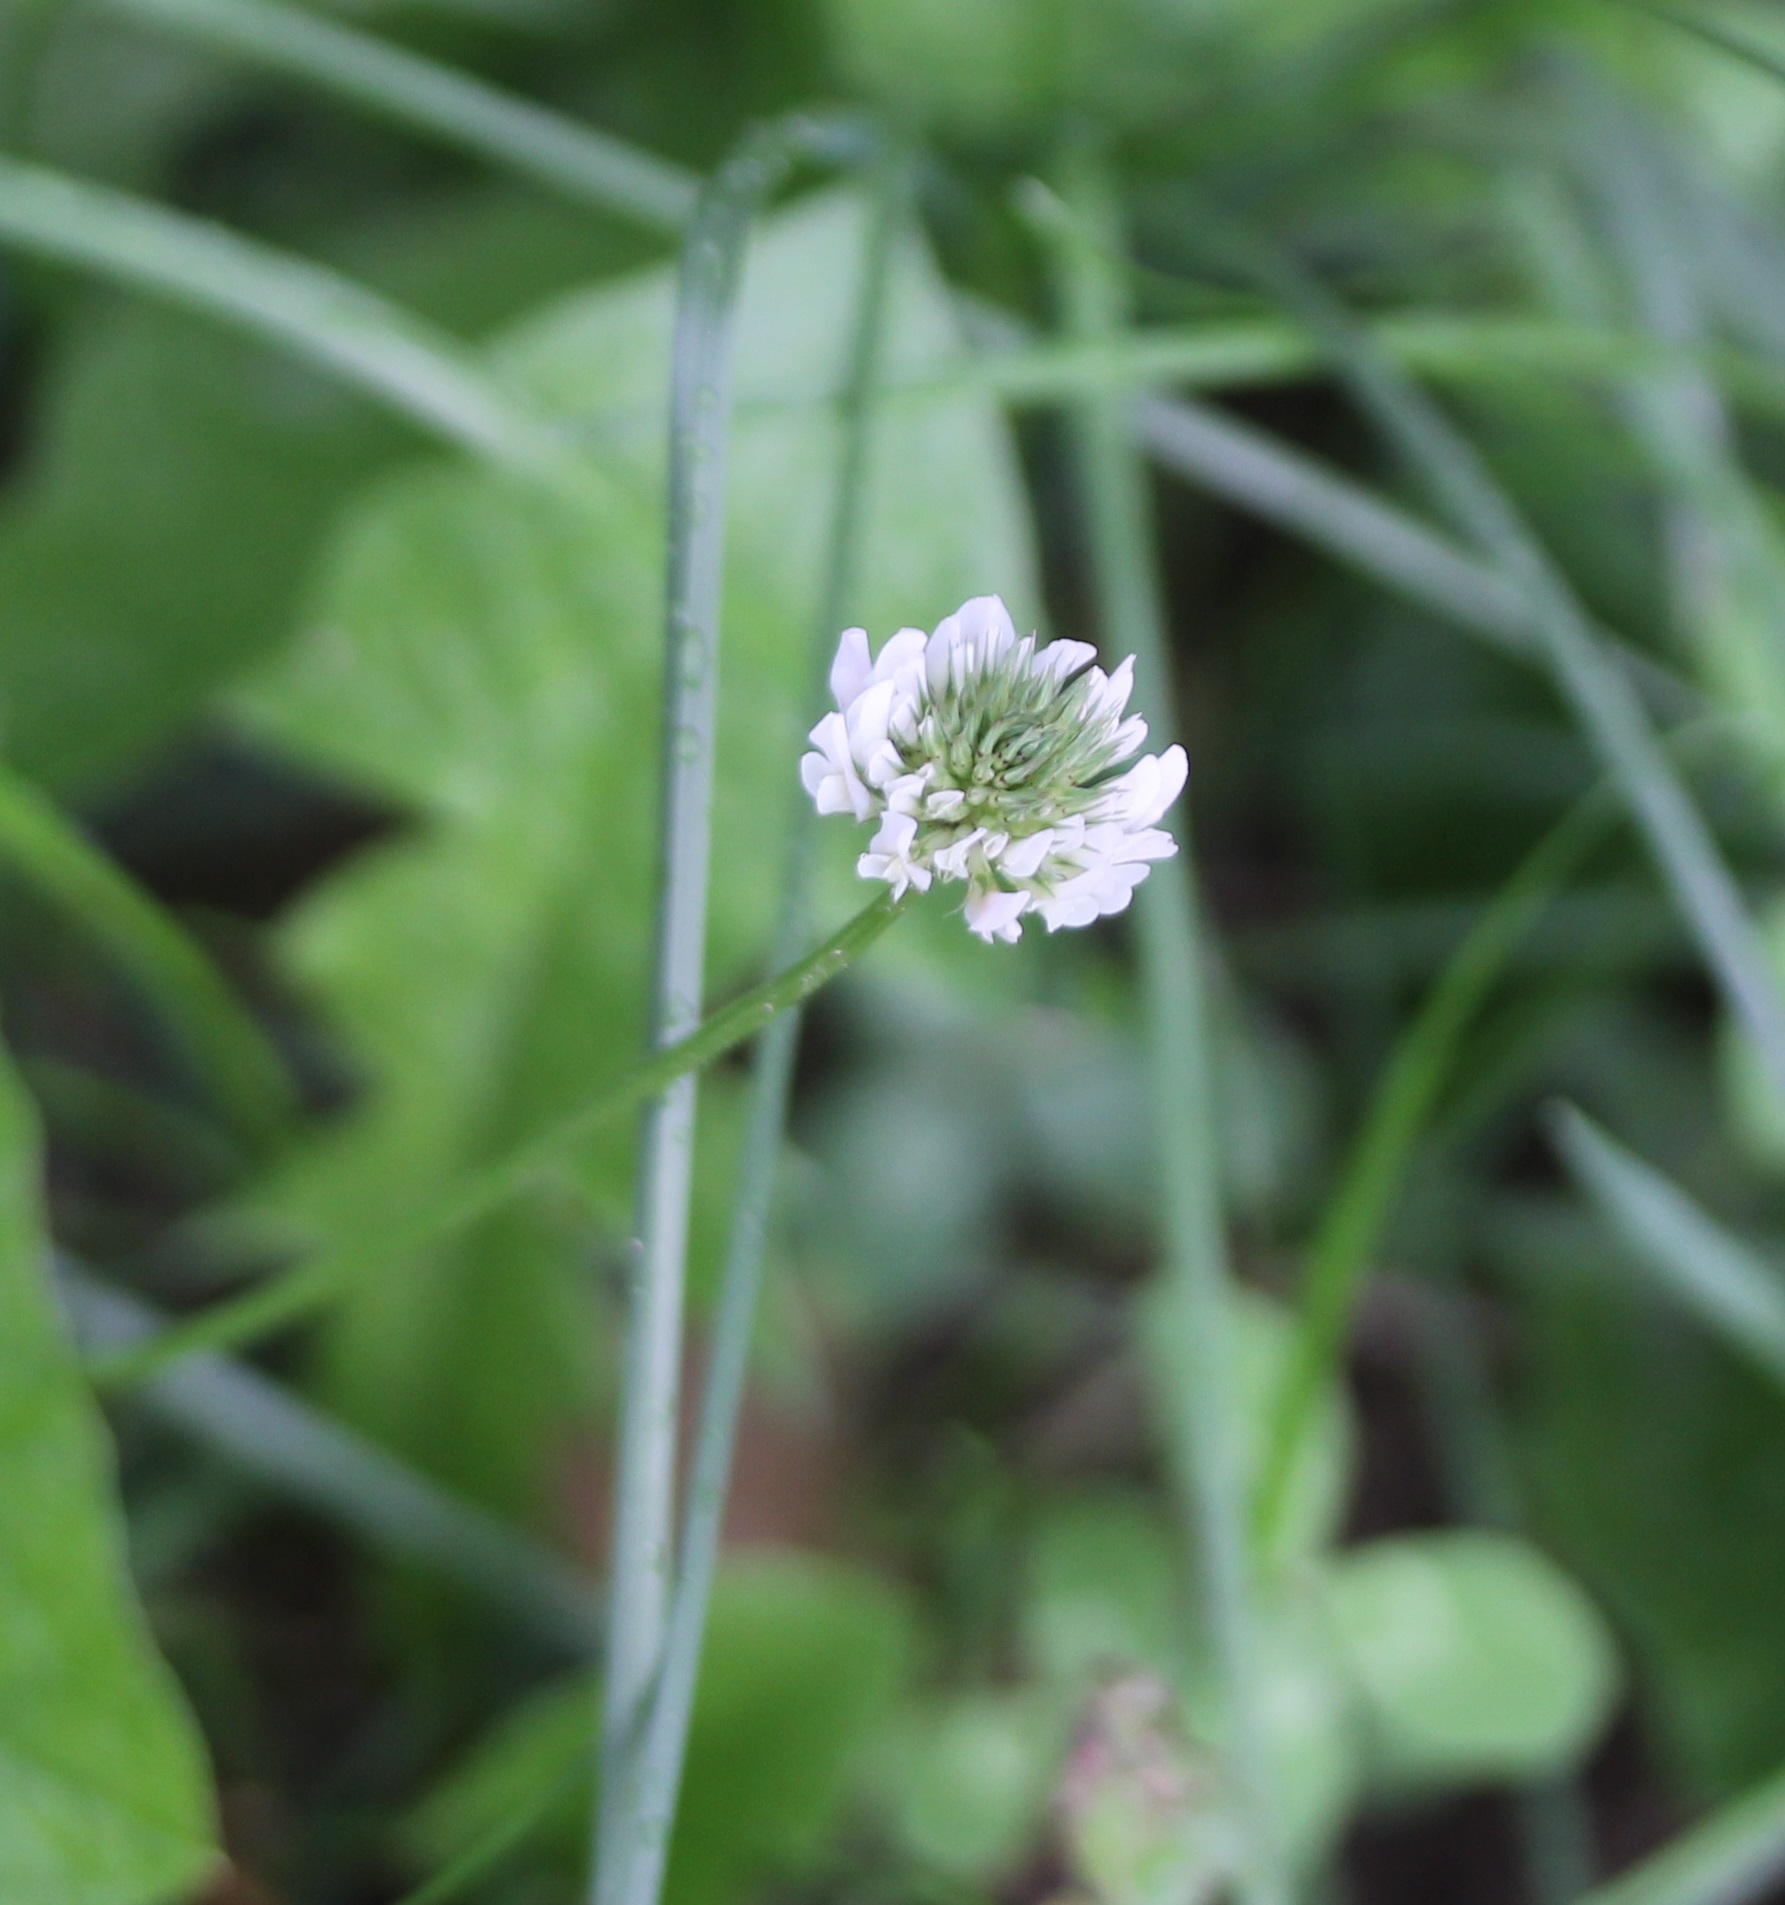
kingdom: Plantae
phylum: Tracheophyta
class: Magnoliopsida
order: Fabales
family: Fabaceae
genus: Trifolium
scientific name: Trifolium repens
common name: White clover
